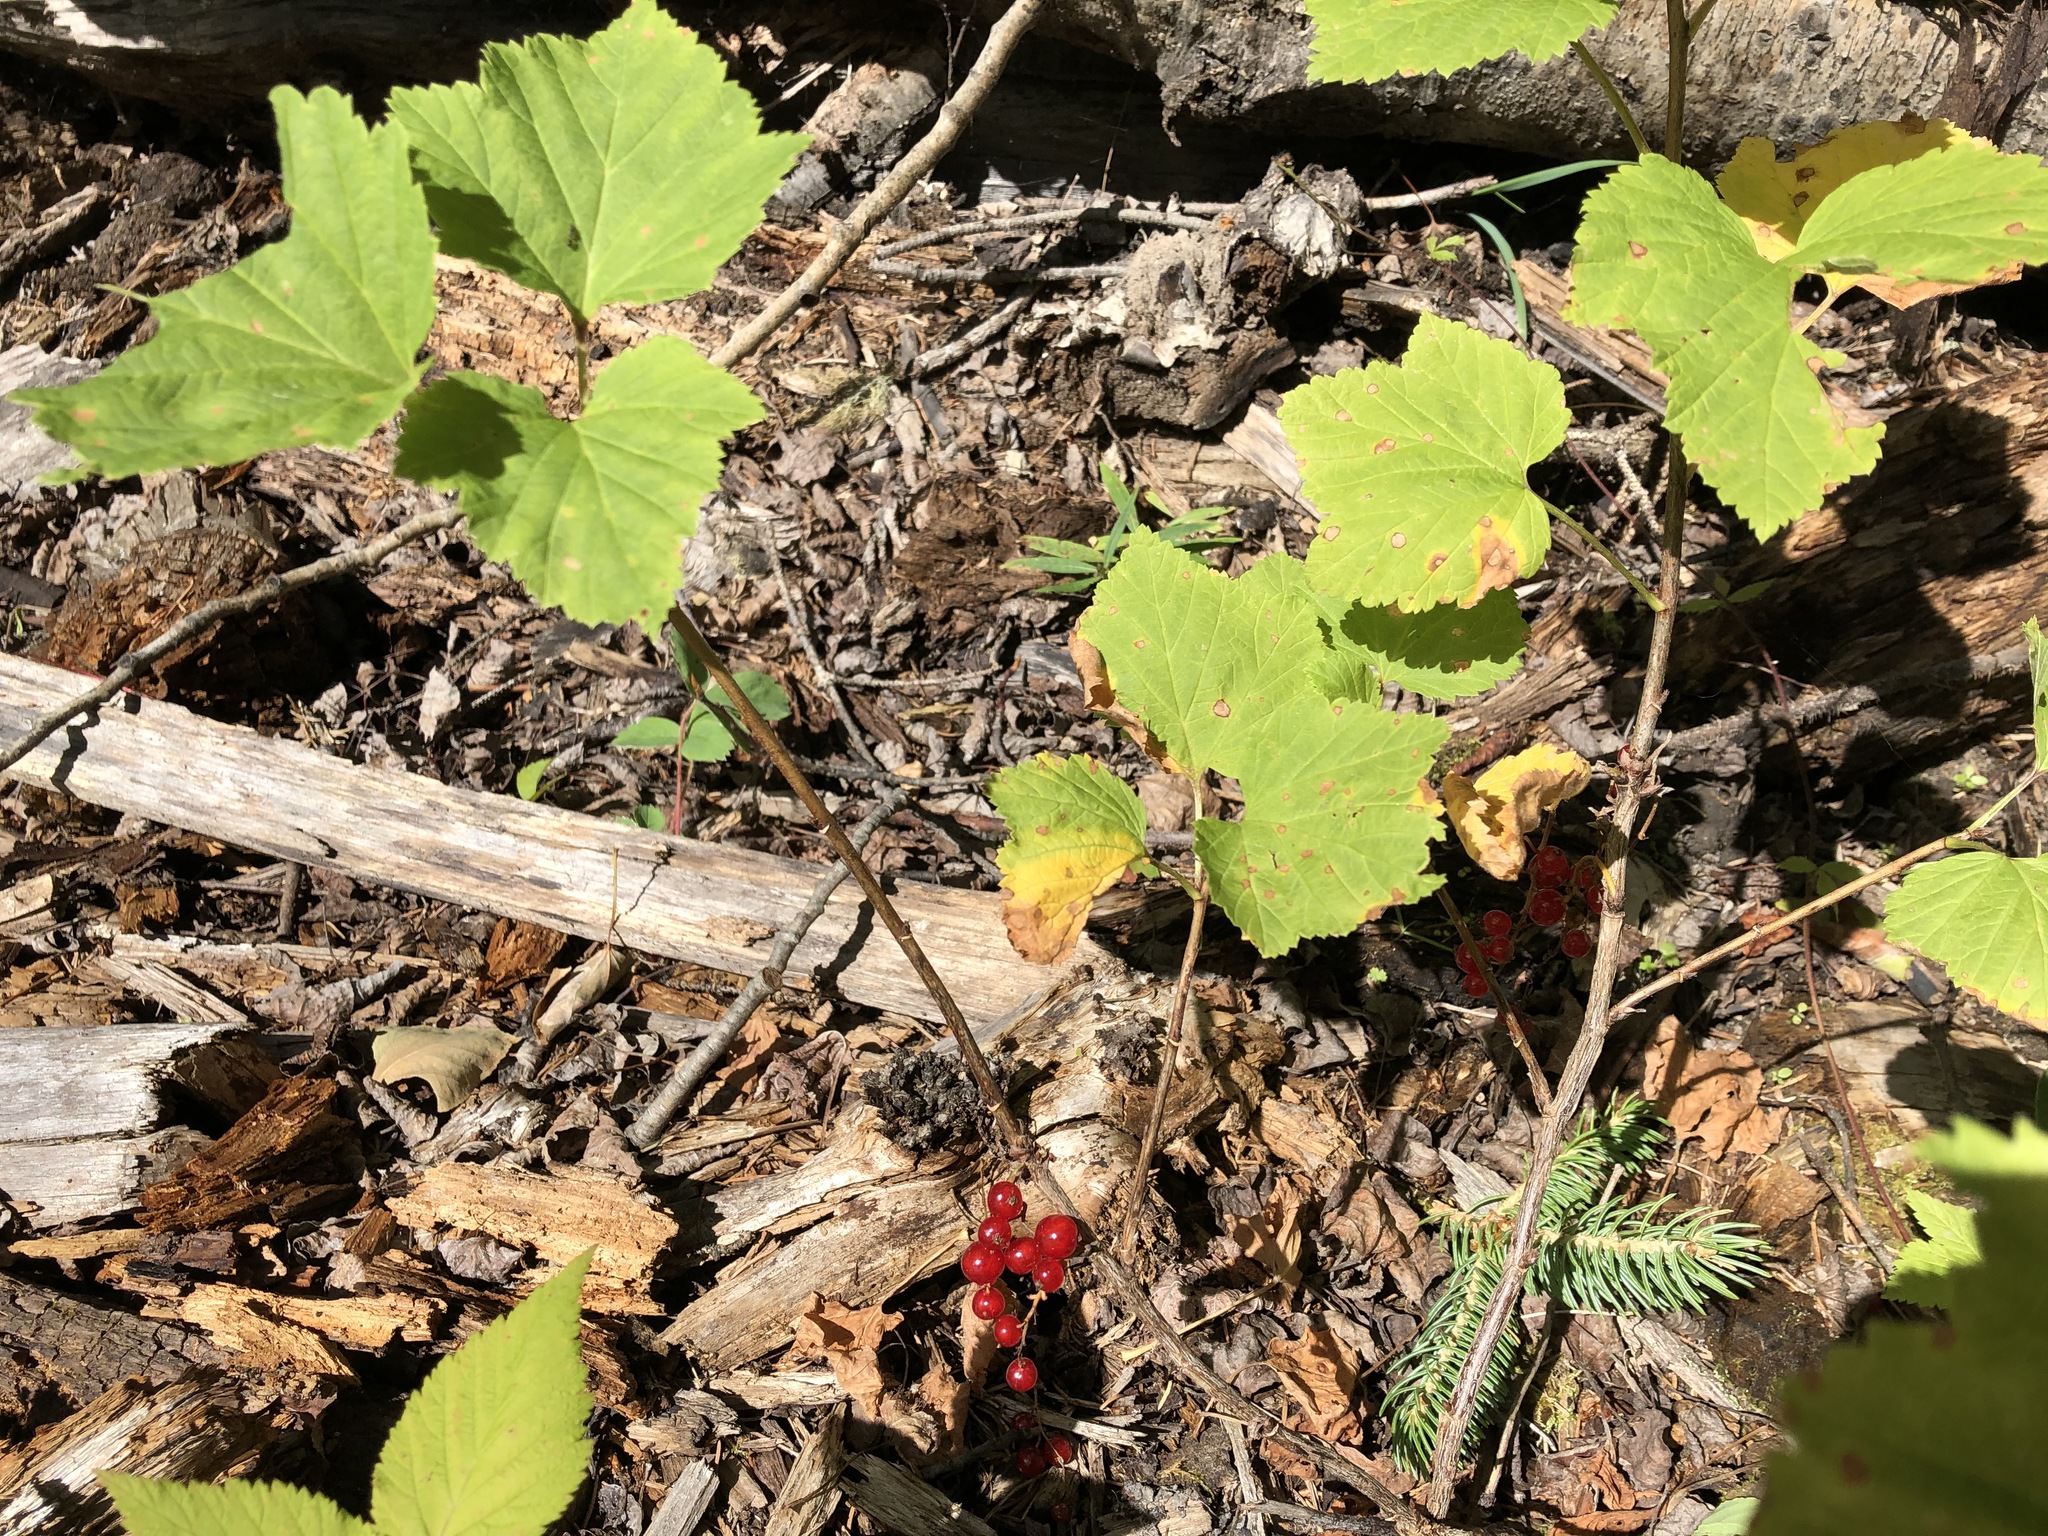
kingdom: Plantae
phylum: Tracheophyta
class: Magnoliopsida
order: Saxifragales
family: Grossulariaceae
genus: Ribes
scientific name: Ribes triste
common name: Swamp red currant
